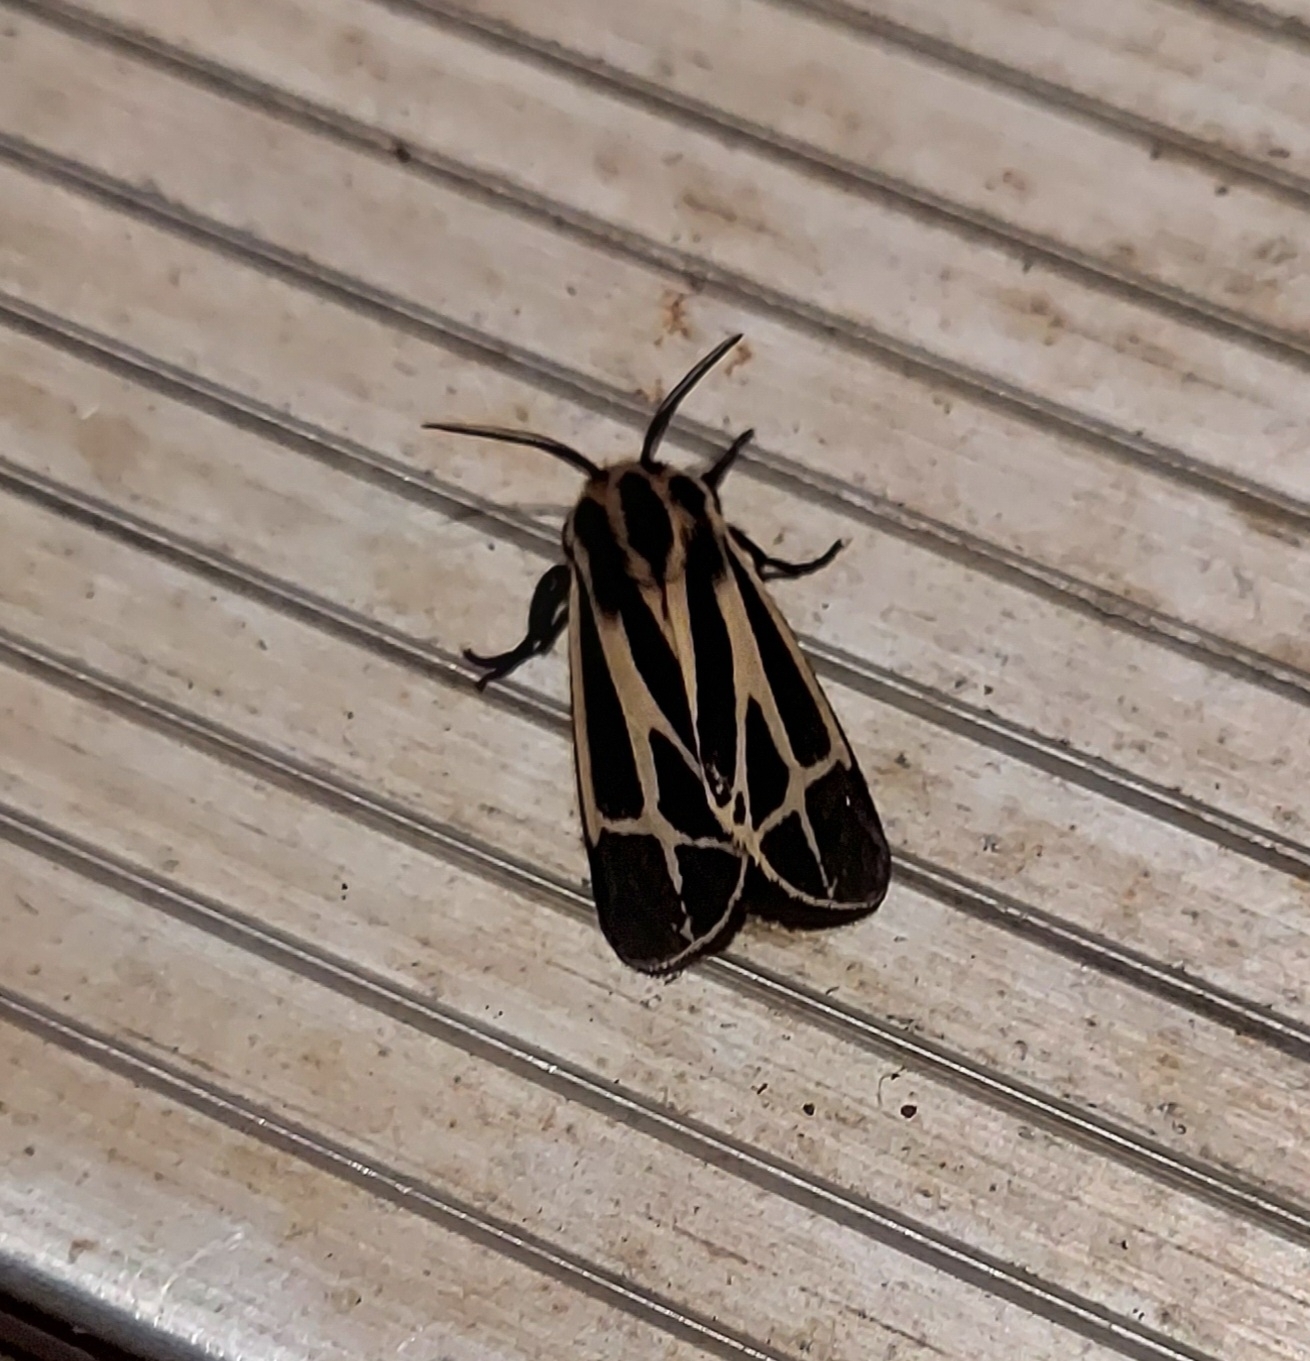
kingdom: Animalia
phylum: Arthropoda
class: Insecta
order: Lepidoptera
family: Erebidae
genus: Apantesis
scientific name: Apantesis phalerata
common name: Harnessed tiger moth
